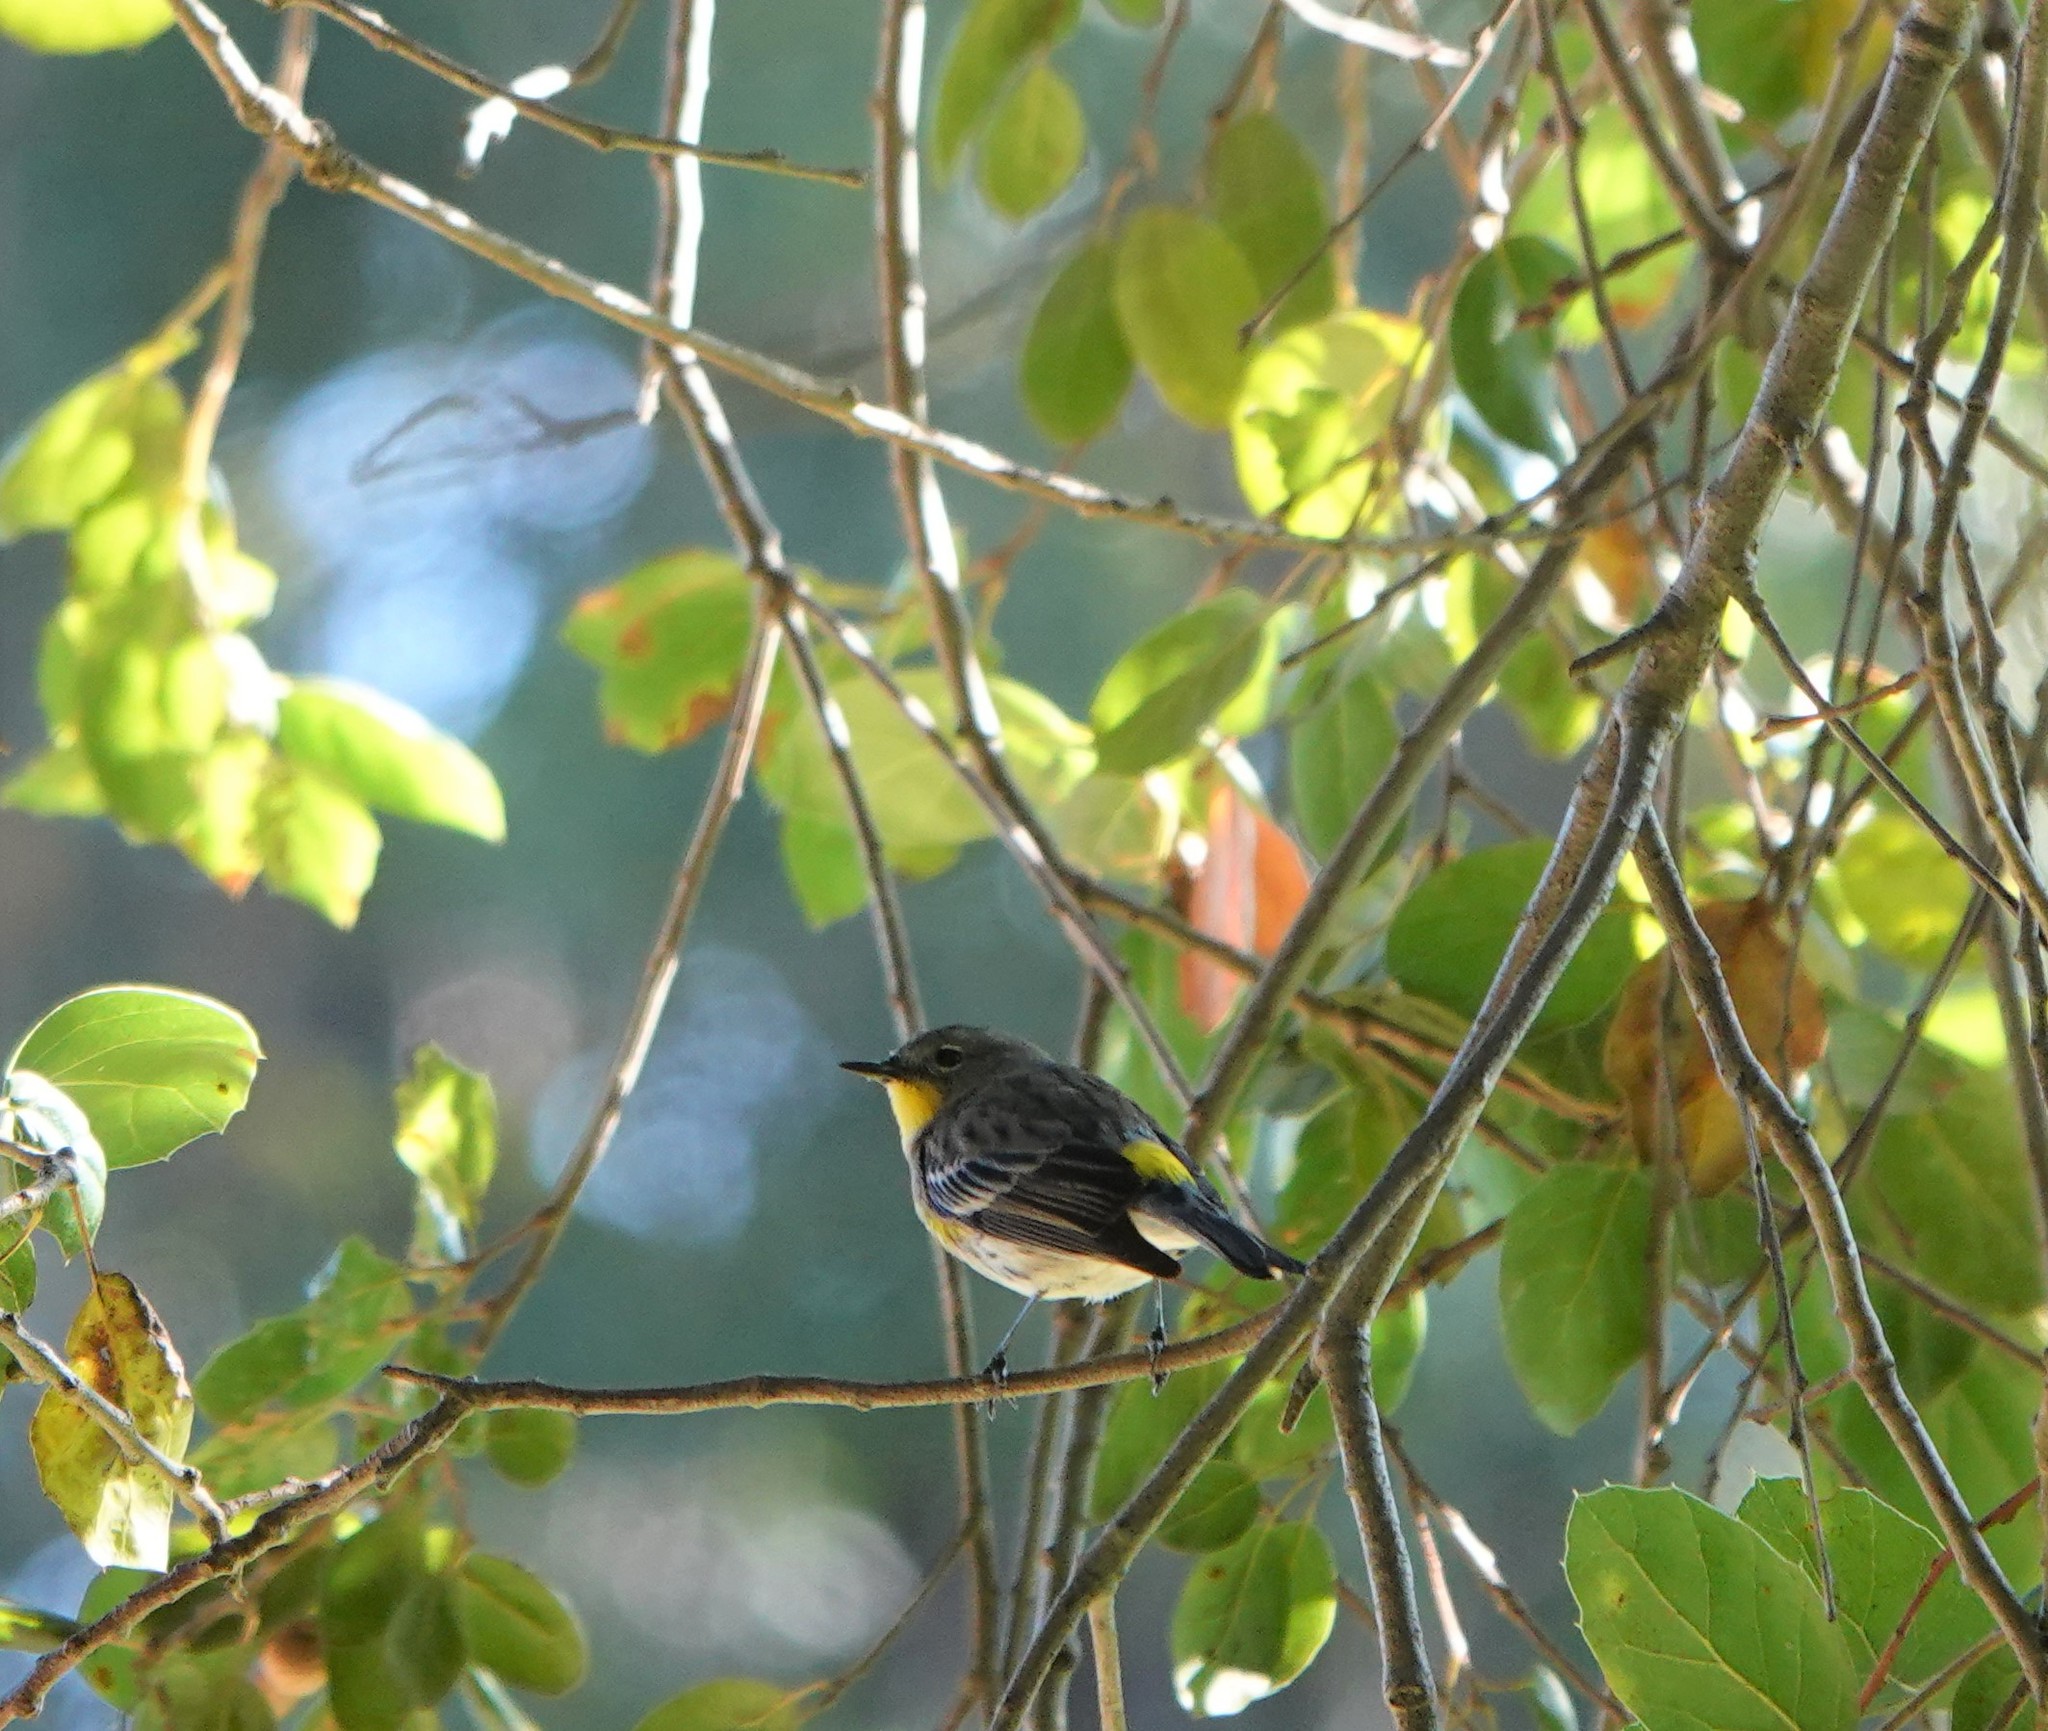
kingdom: Animalia
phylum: Chordata
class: Aves
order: Passeriformes
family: Parulidae
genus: Setophaga
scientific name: Setophaga auduboni
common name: Audubon's warbler
